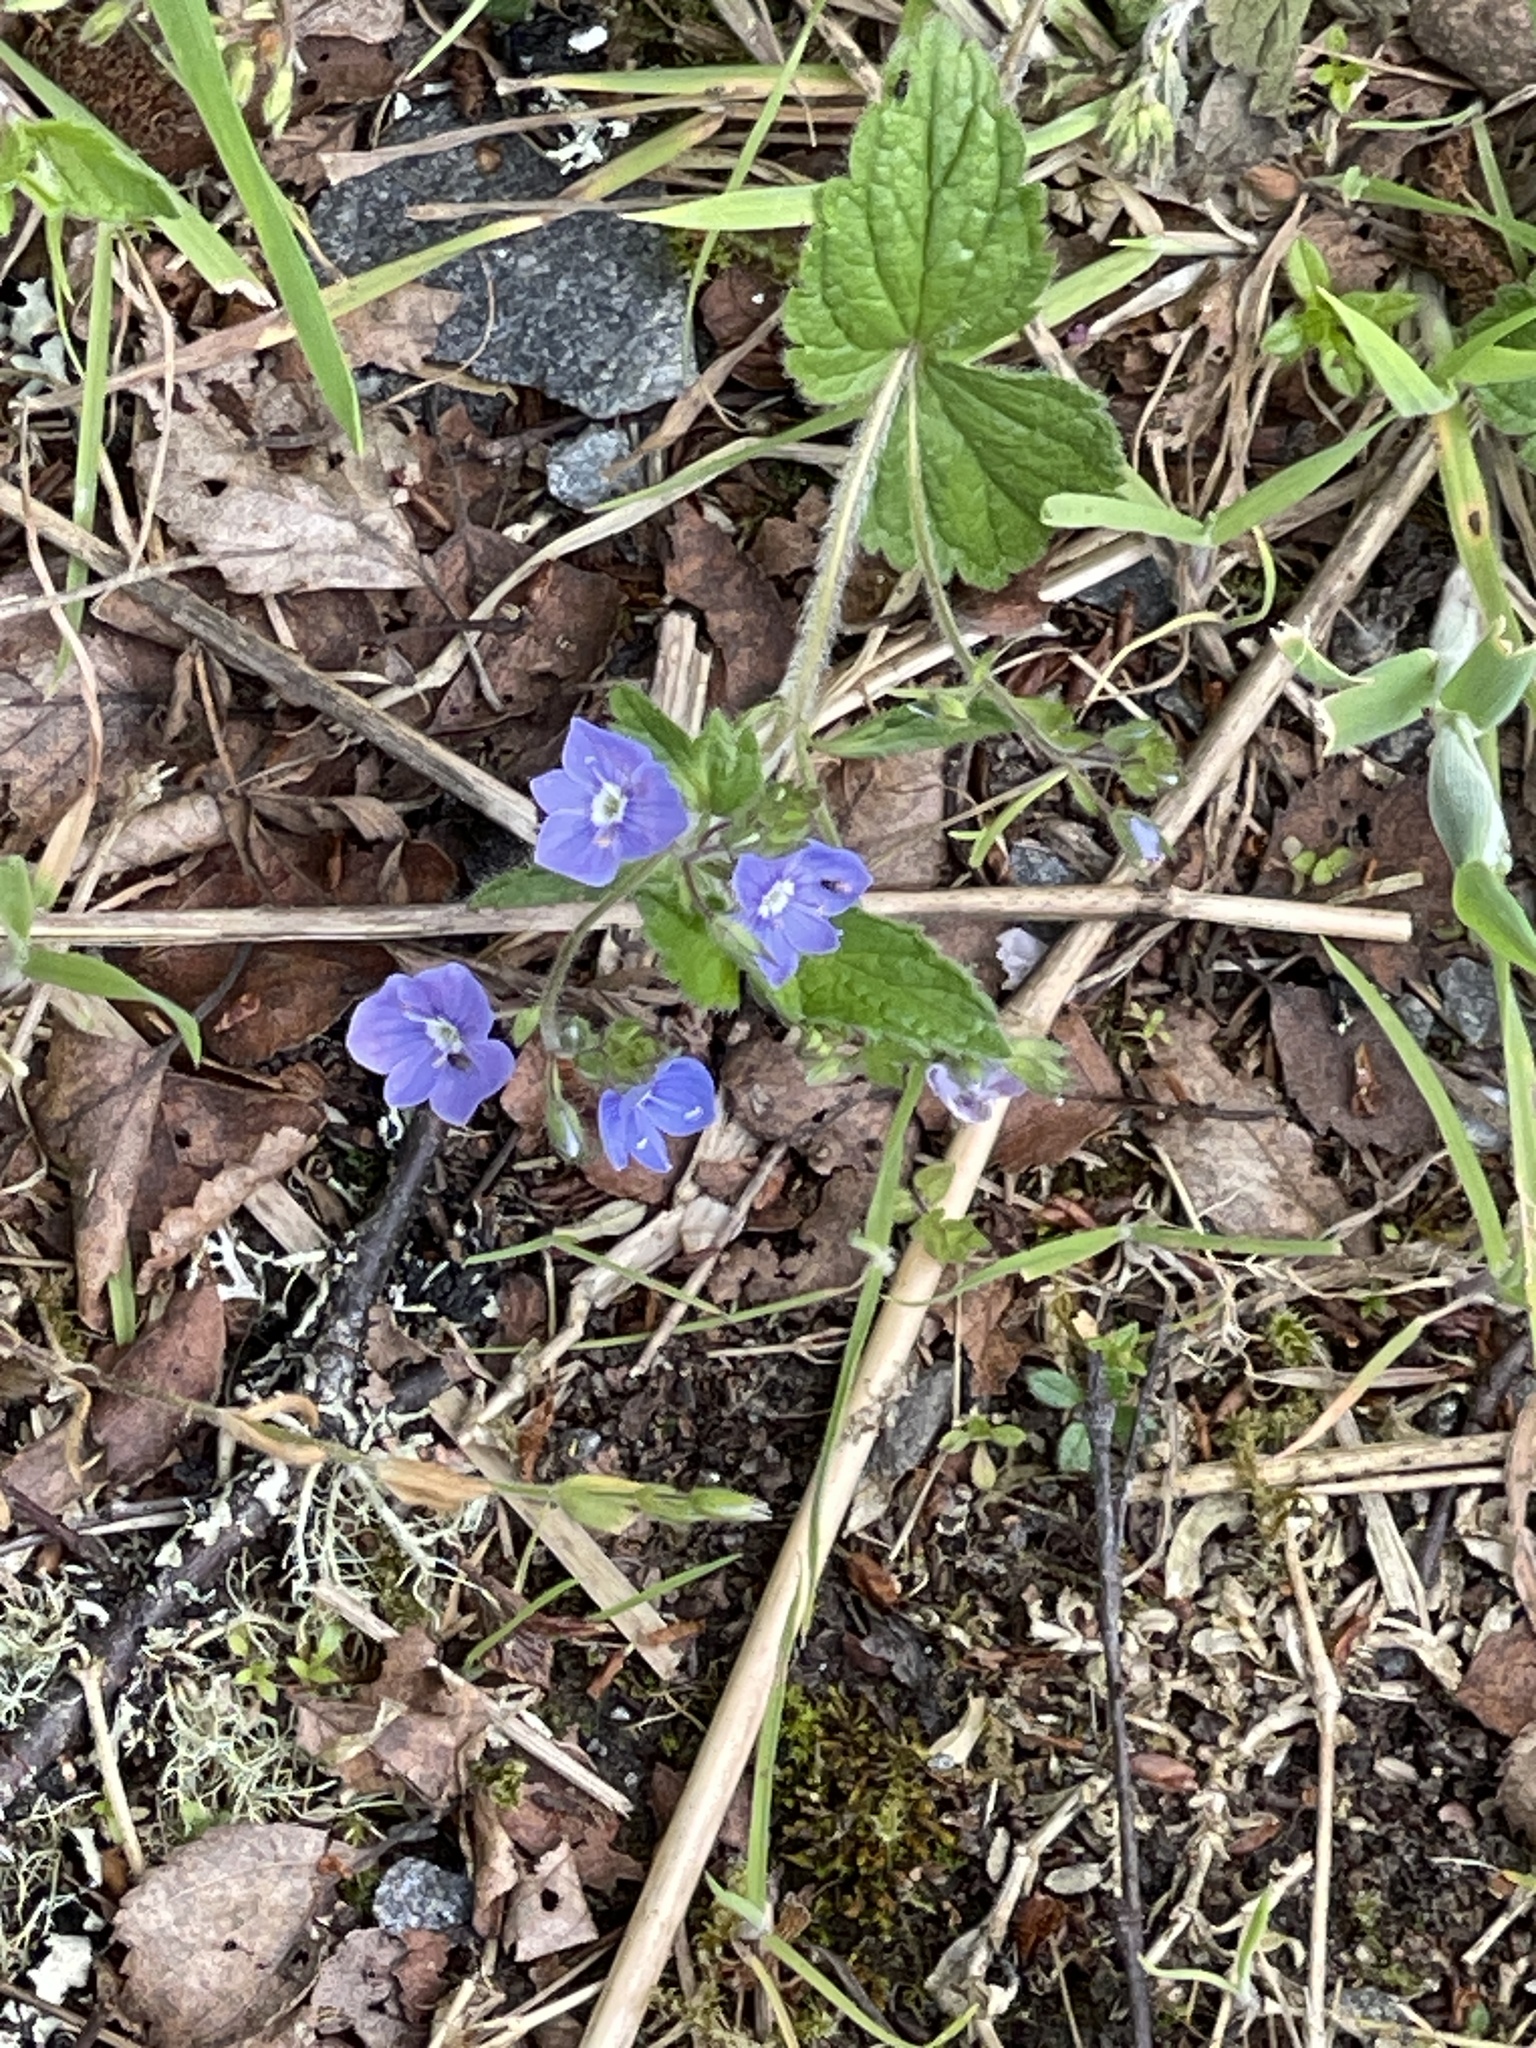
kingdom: Plantae
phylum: Tracheophyta
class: Magnoliopsida
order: Lamiales
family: Plantaginaceae
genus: Veronica
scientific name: Veronica chamaedrys
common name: Germander speedwell
